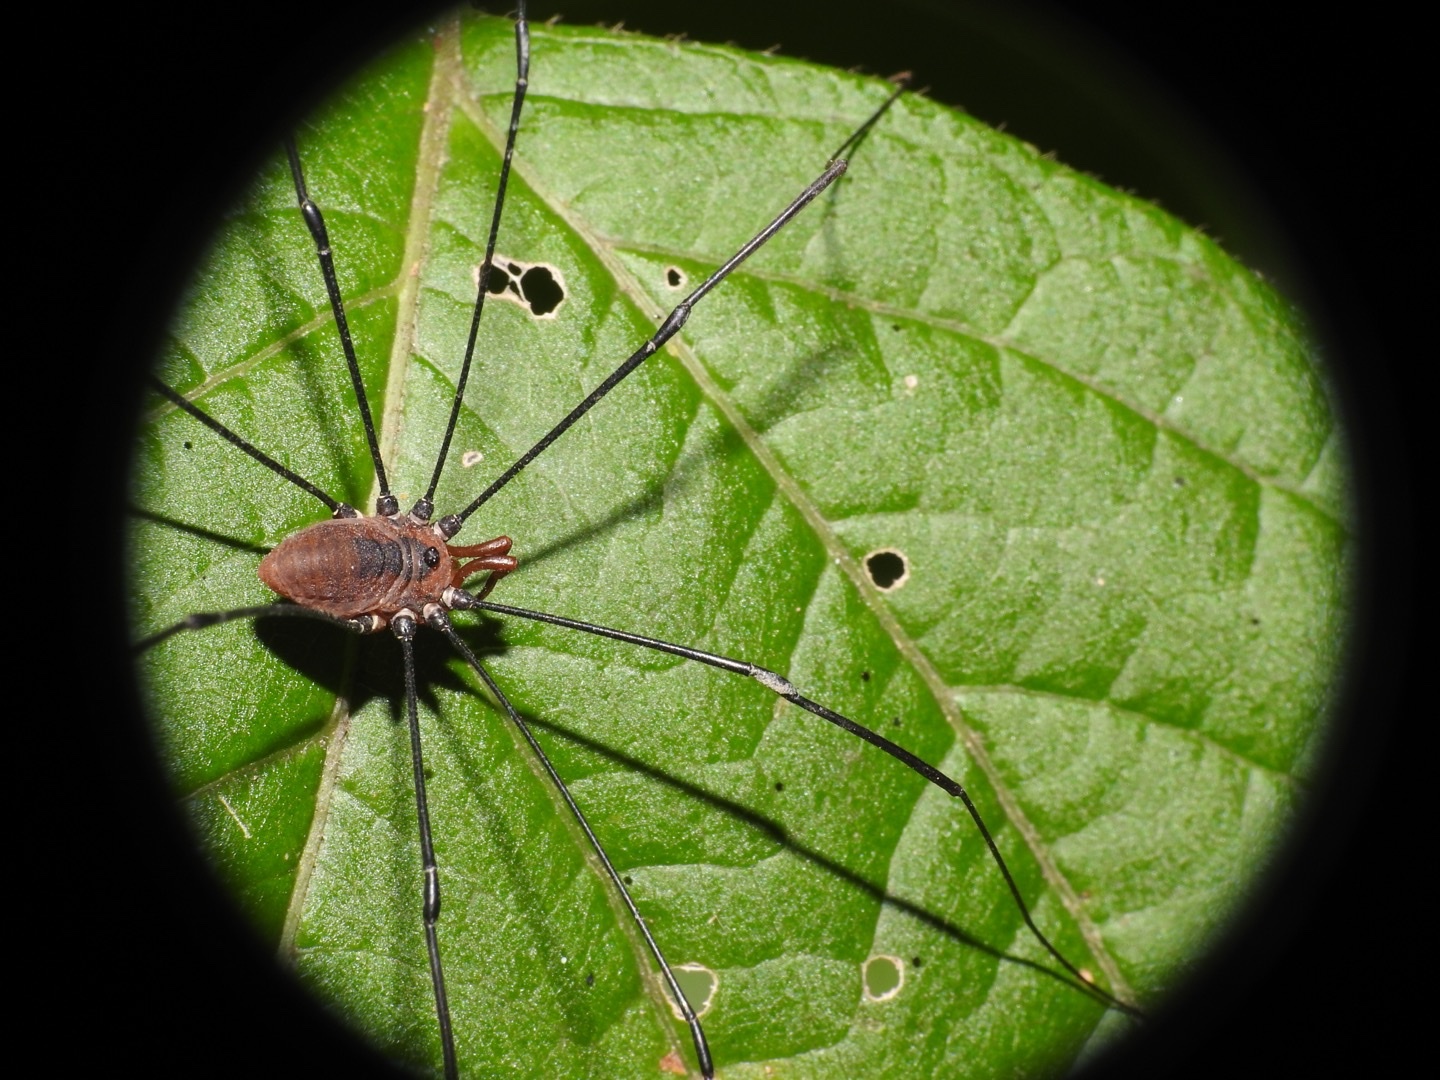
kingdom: Animalia
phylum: Arthropoda
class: Arachnida
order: Opiliones
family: Sclerosomatidae
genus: Leiobunum
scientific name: Leiobunum vittatum
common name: Eastern harvestman
